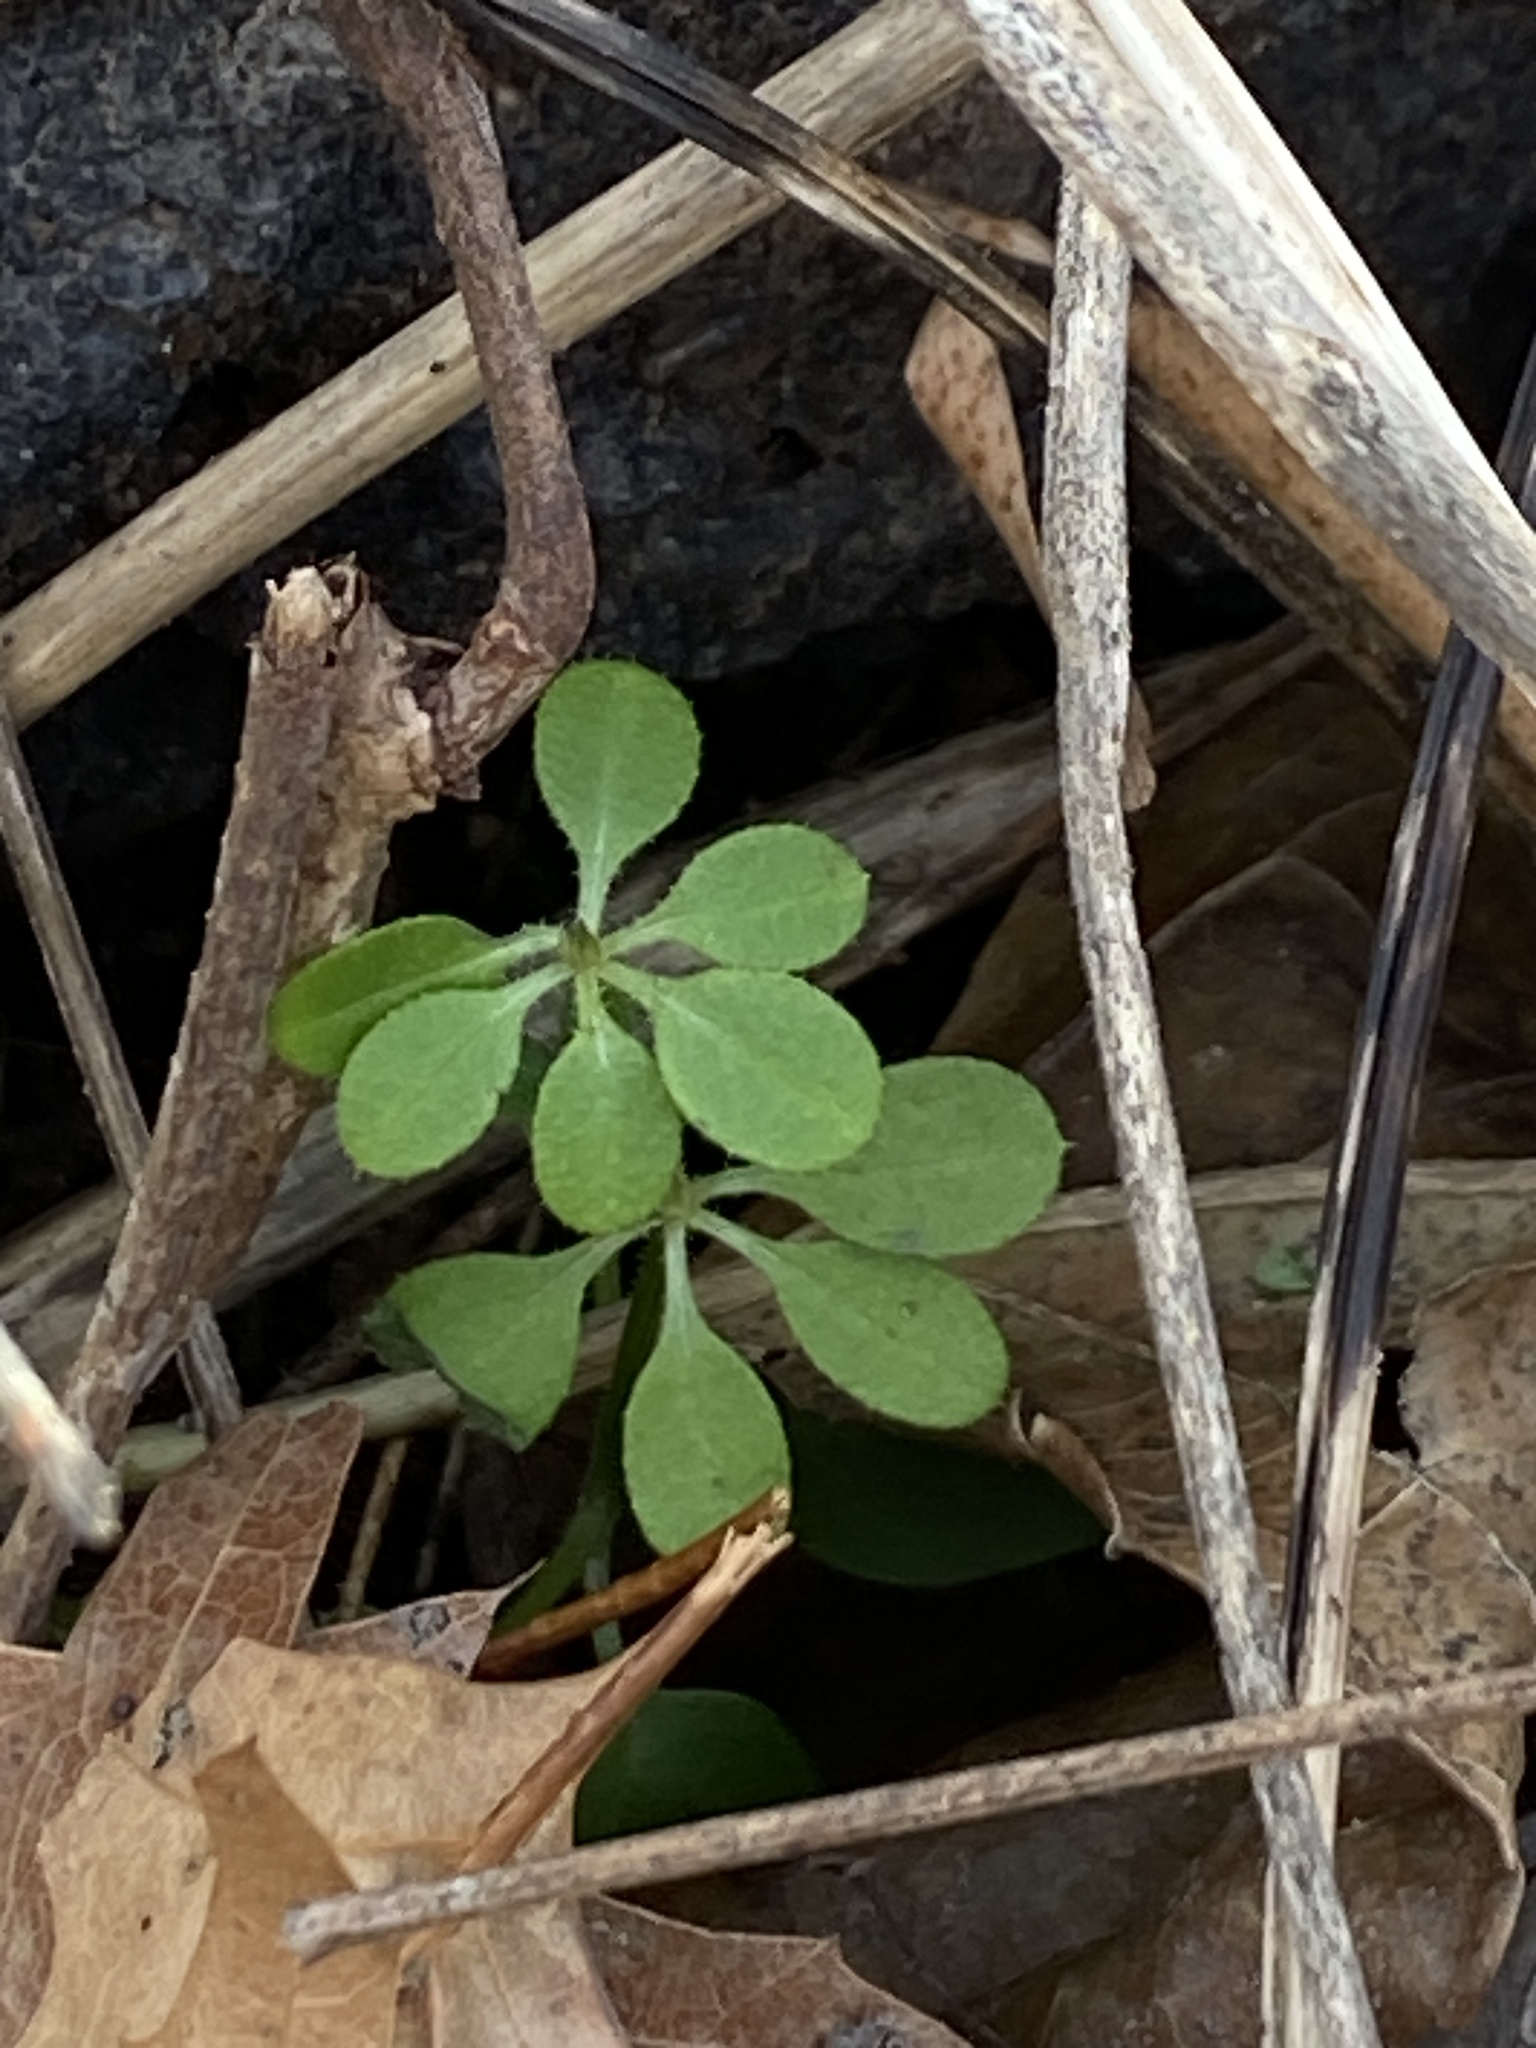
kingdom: Plantae
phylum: Tracheophyta
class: Magnoliopsida
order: Gentianales
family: Rubiaceae
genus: Galium
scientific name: Galium aparine
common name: Cleavers
